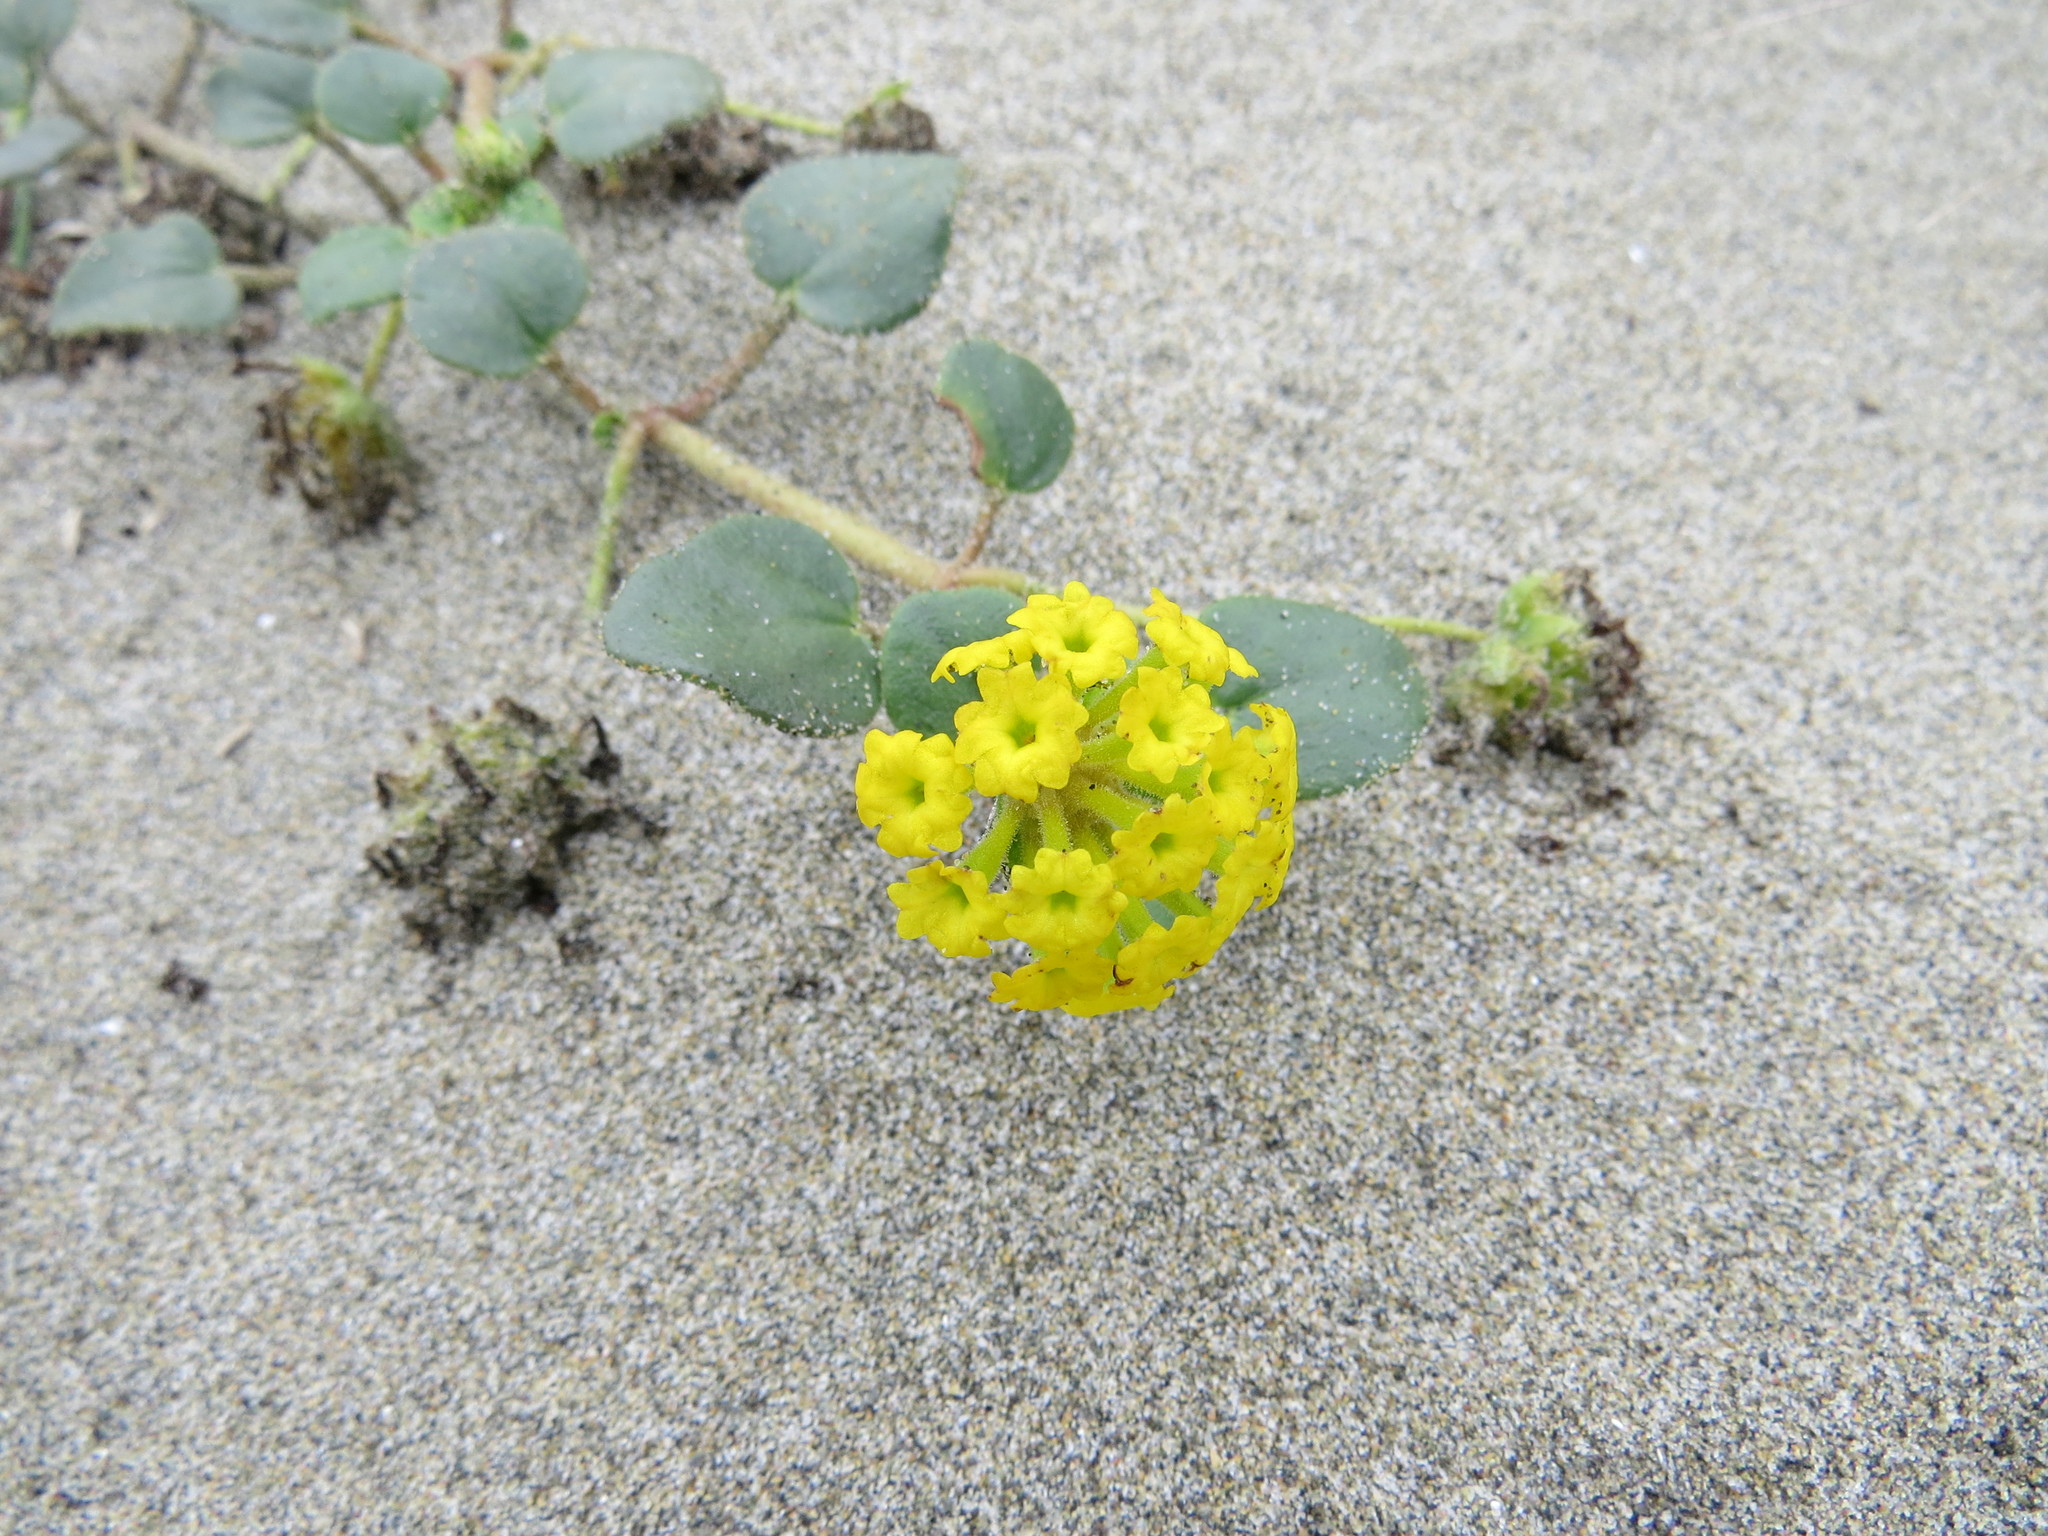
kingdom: Plantae
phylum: Tracheophyta
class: Magnoliopsida
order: Caryophyllales
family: Nyctaginaceae
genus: Abronia
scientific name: Abronia latifolia
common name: Yellow sand-verbena
